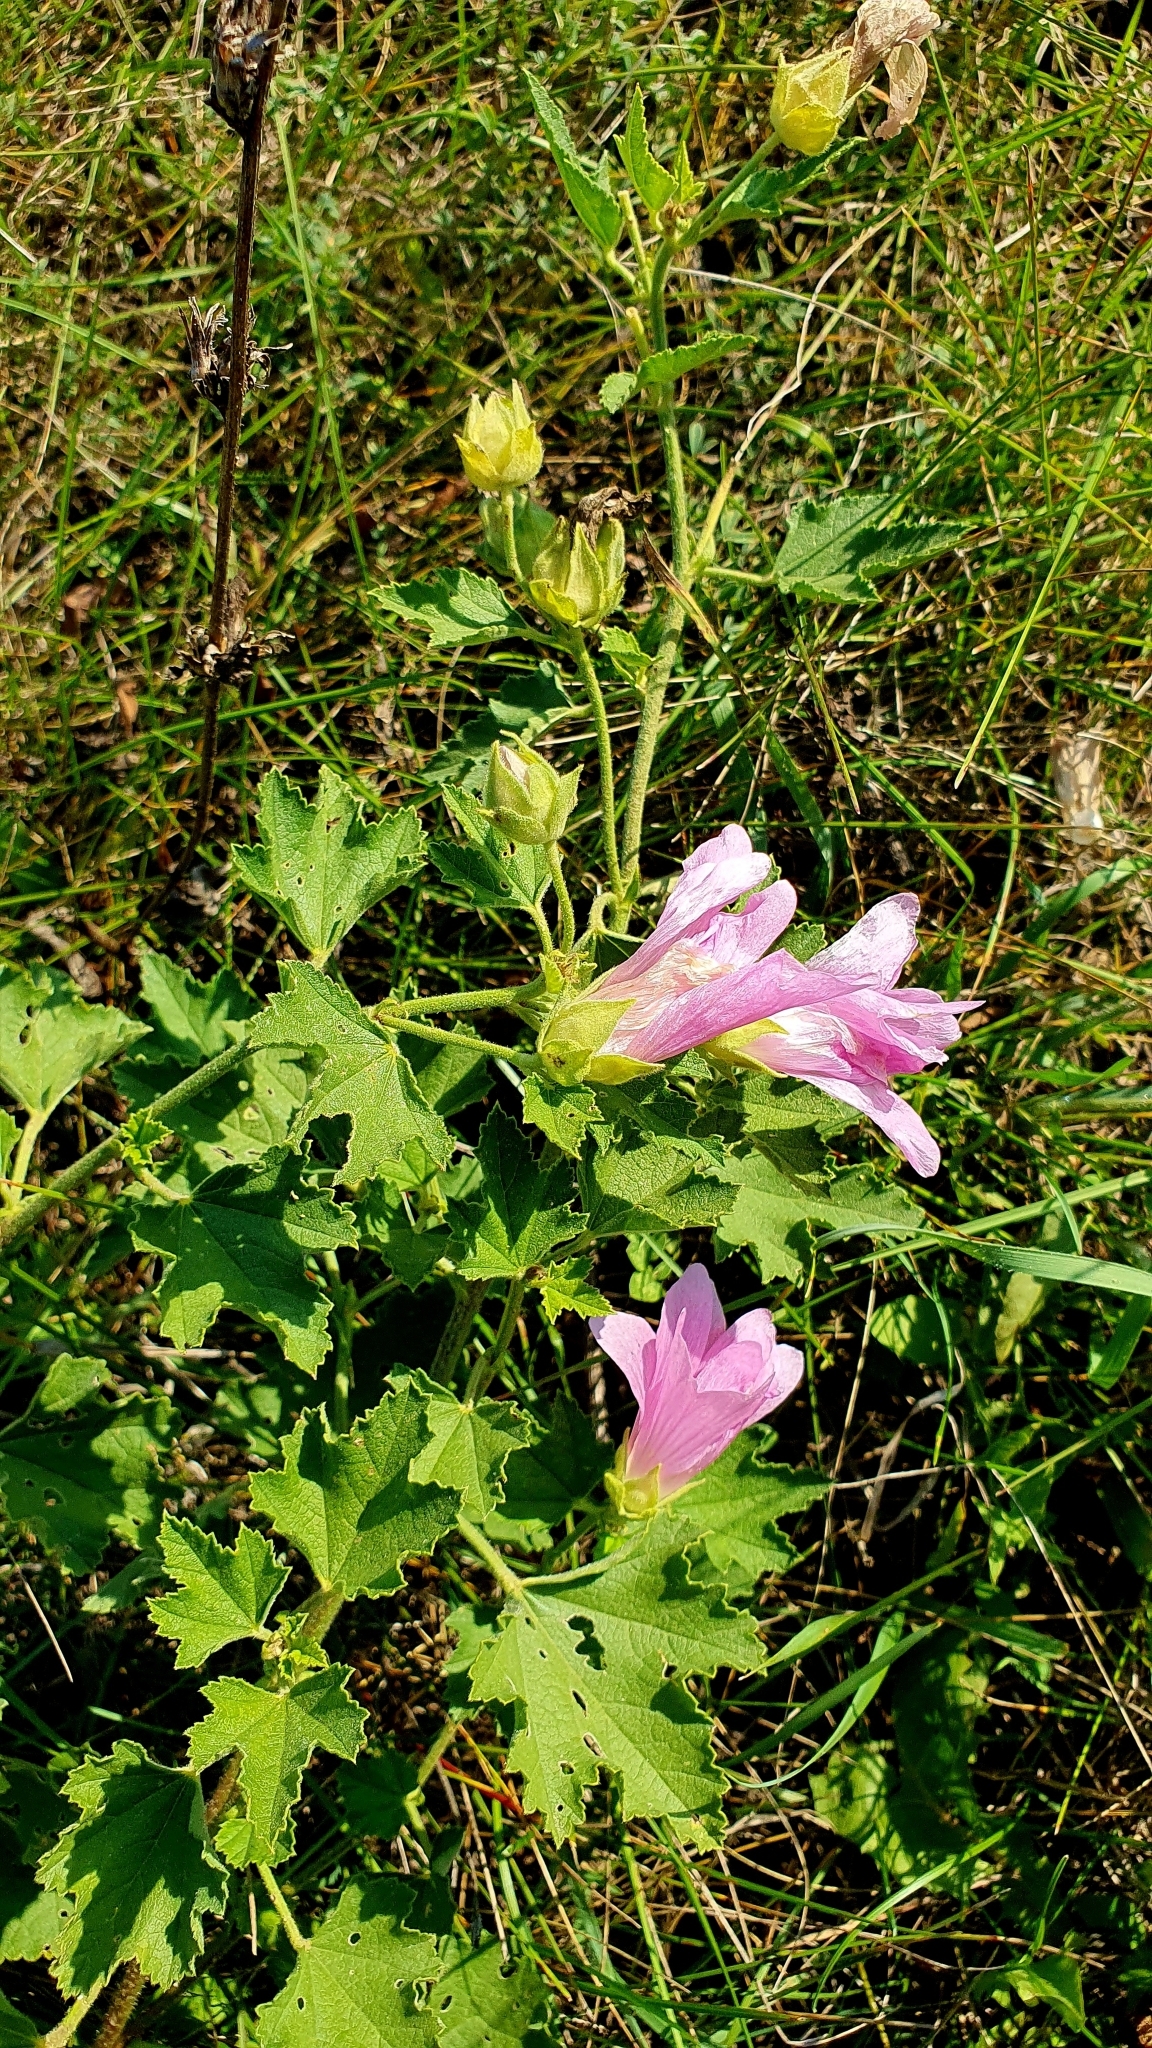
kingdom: Plantae
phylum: Tracheophyta
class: Magnoliopsida
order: Malvales
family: Malvaceae
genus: Malva
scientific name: Malva thuringiaca
